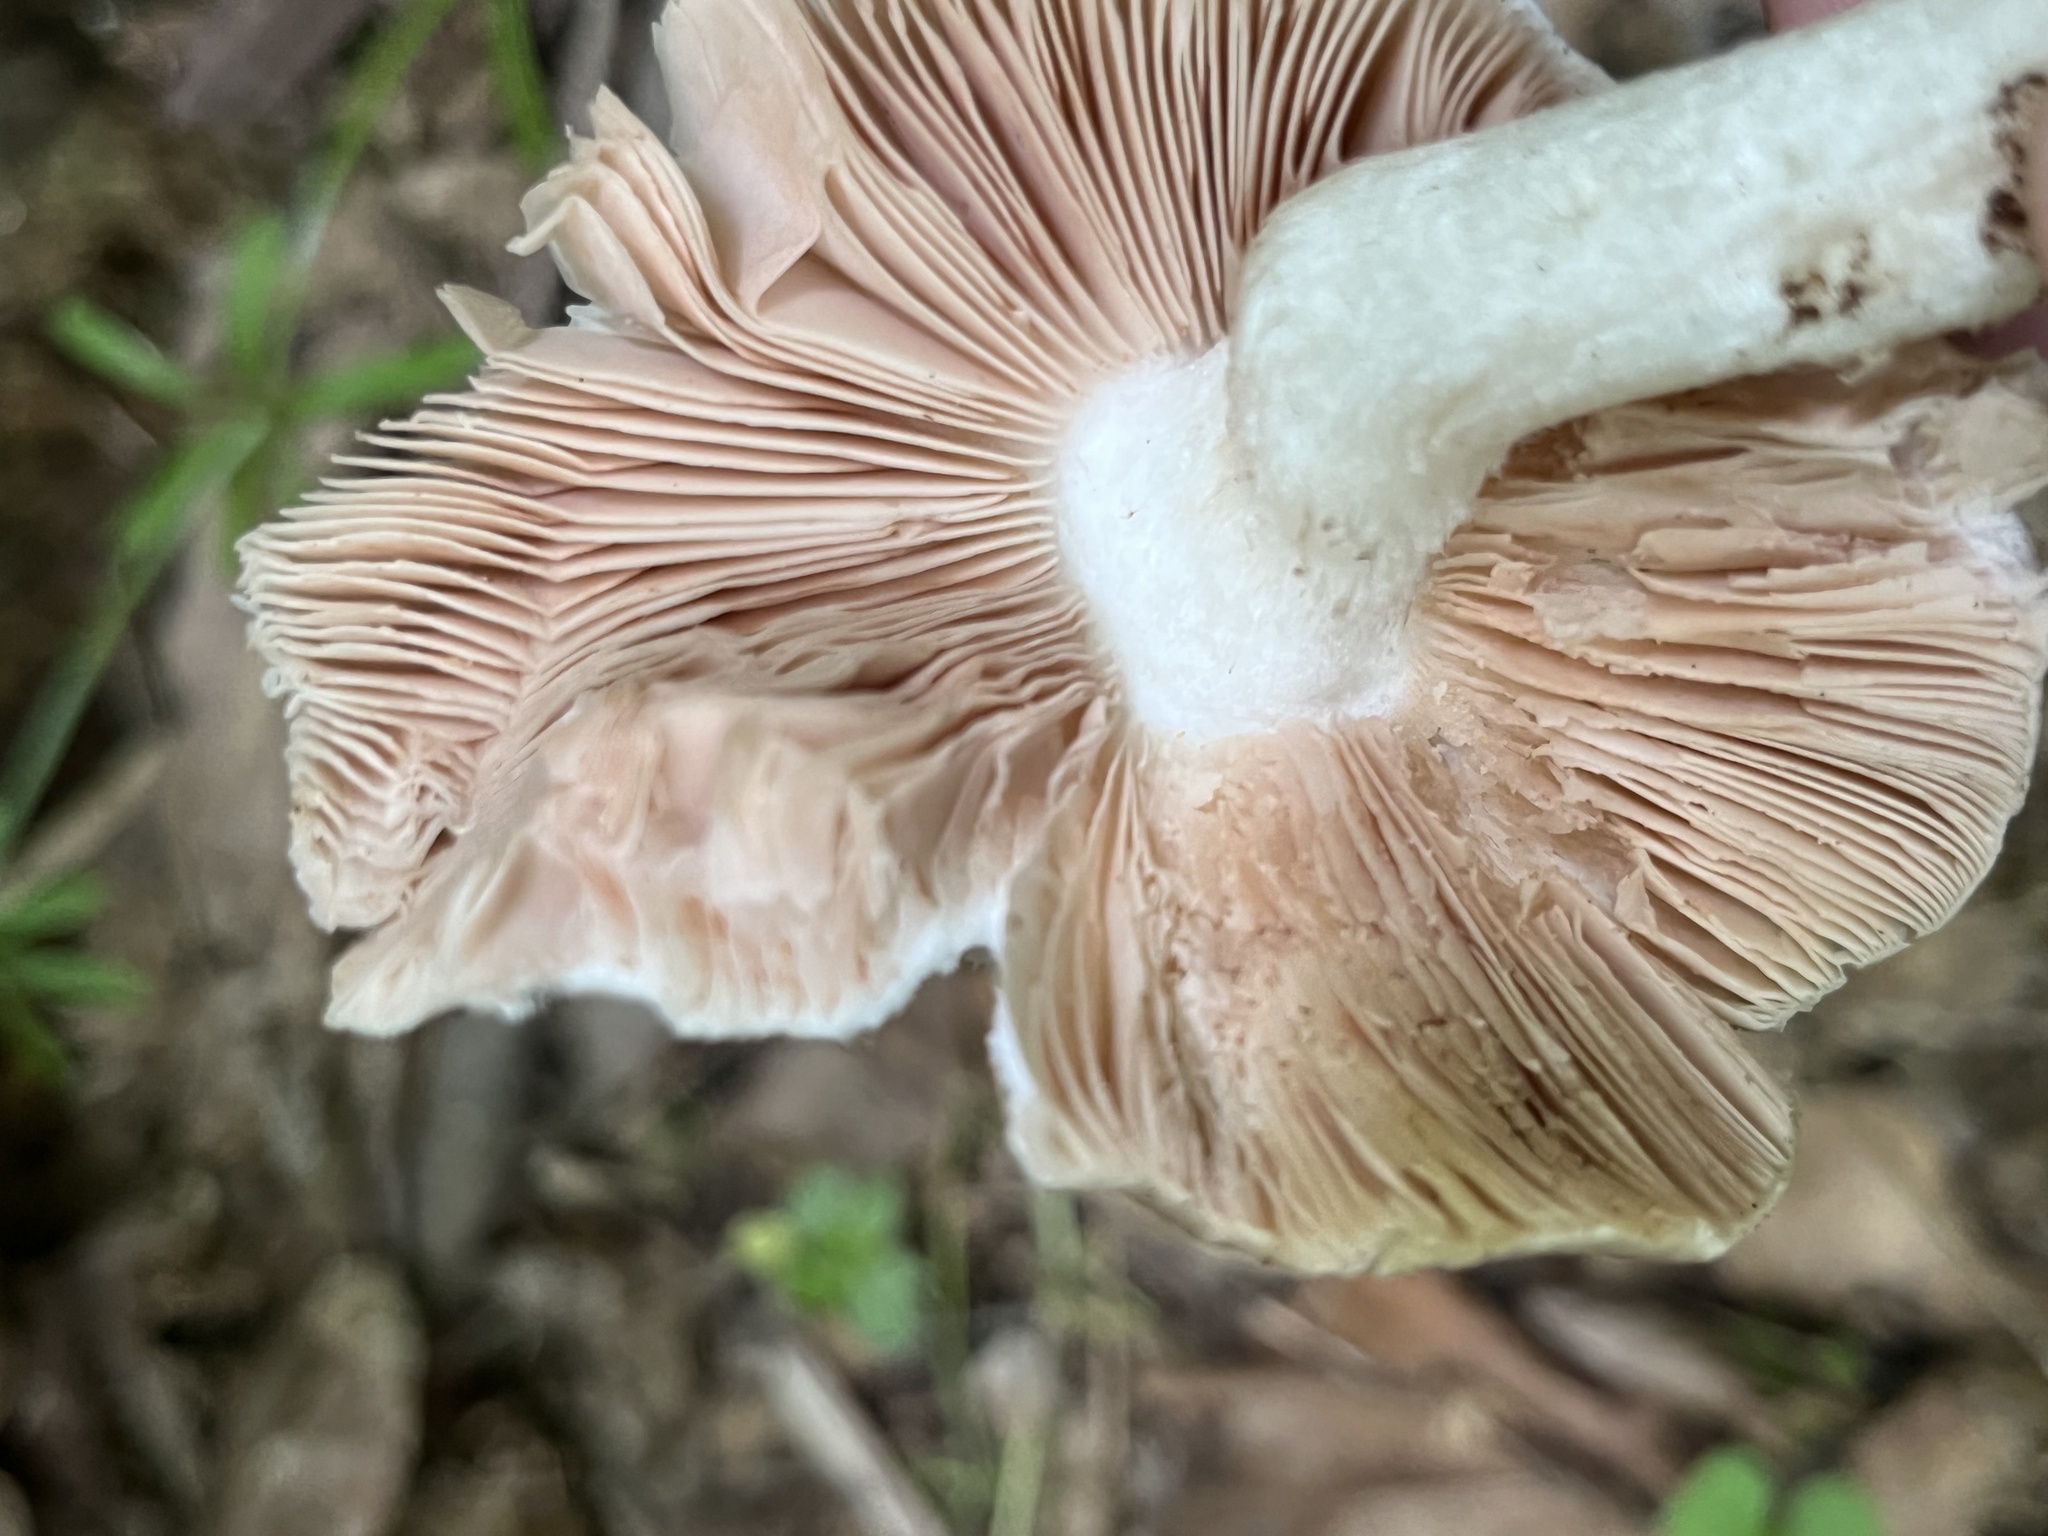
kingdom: Fungi
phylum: Basidiomycota
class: Agaricomycetes
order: Agaricales
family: Pluteaceae
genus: Pluteus
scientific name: Pluteus cervinus
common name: Deer shield
